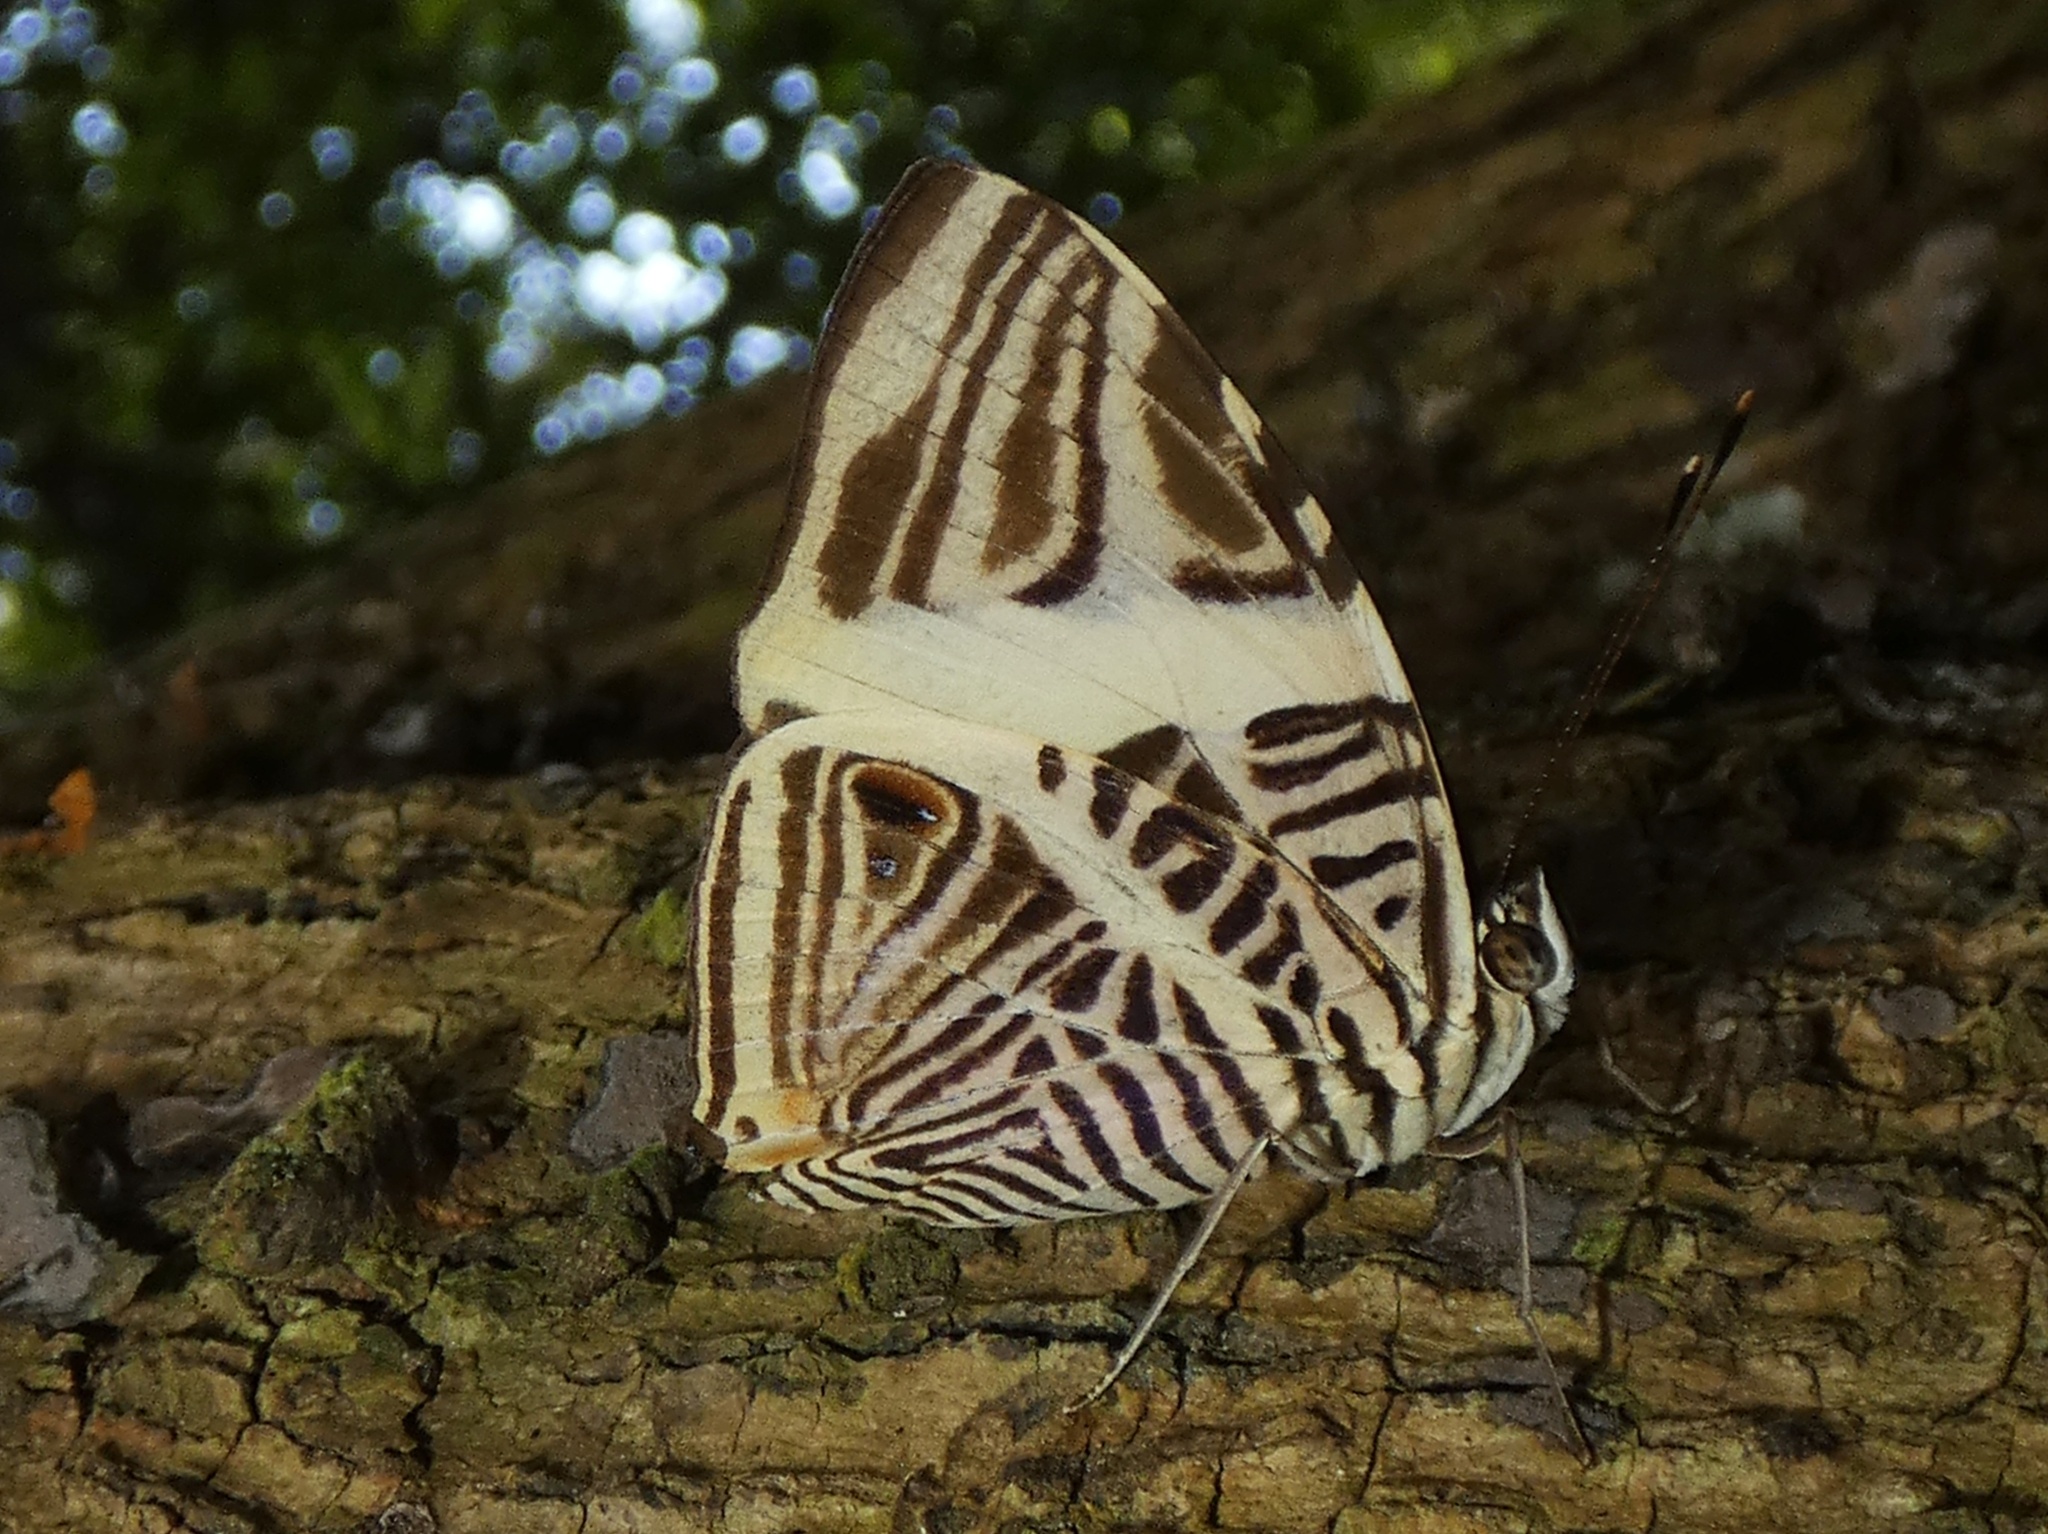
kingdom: Animalia
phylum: Arthropoda
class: Insecta
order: Lepidoptera
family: Nymphalidae
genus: Colobura
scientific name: Colobura dirce
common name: Dirce beauty
